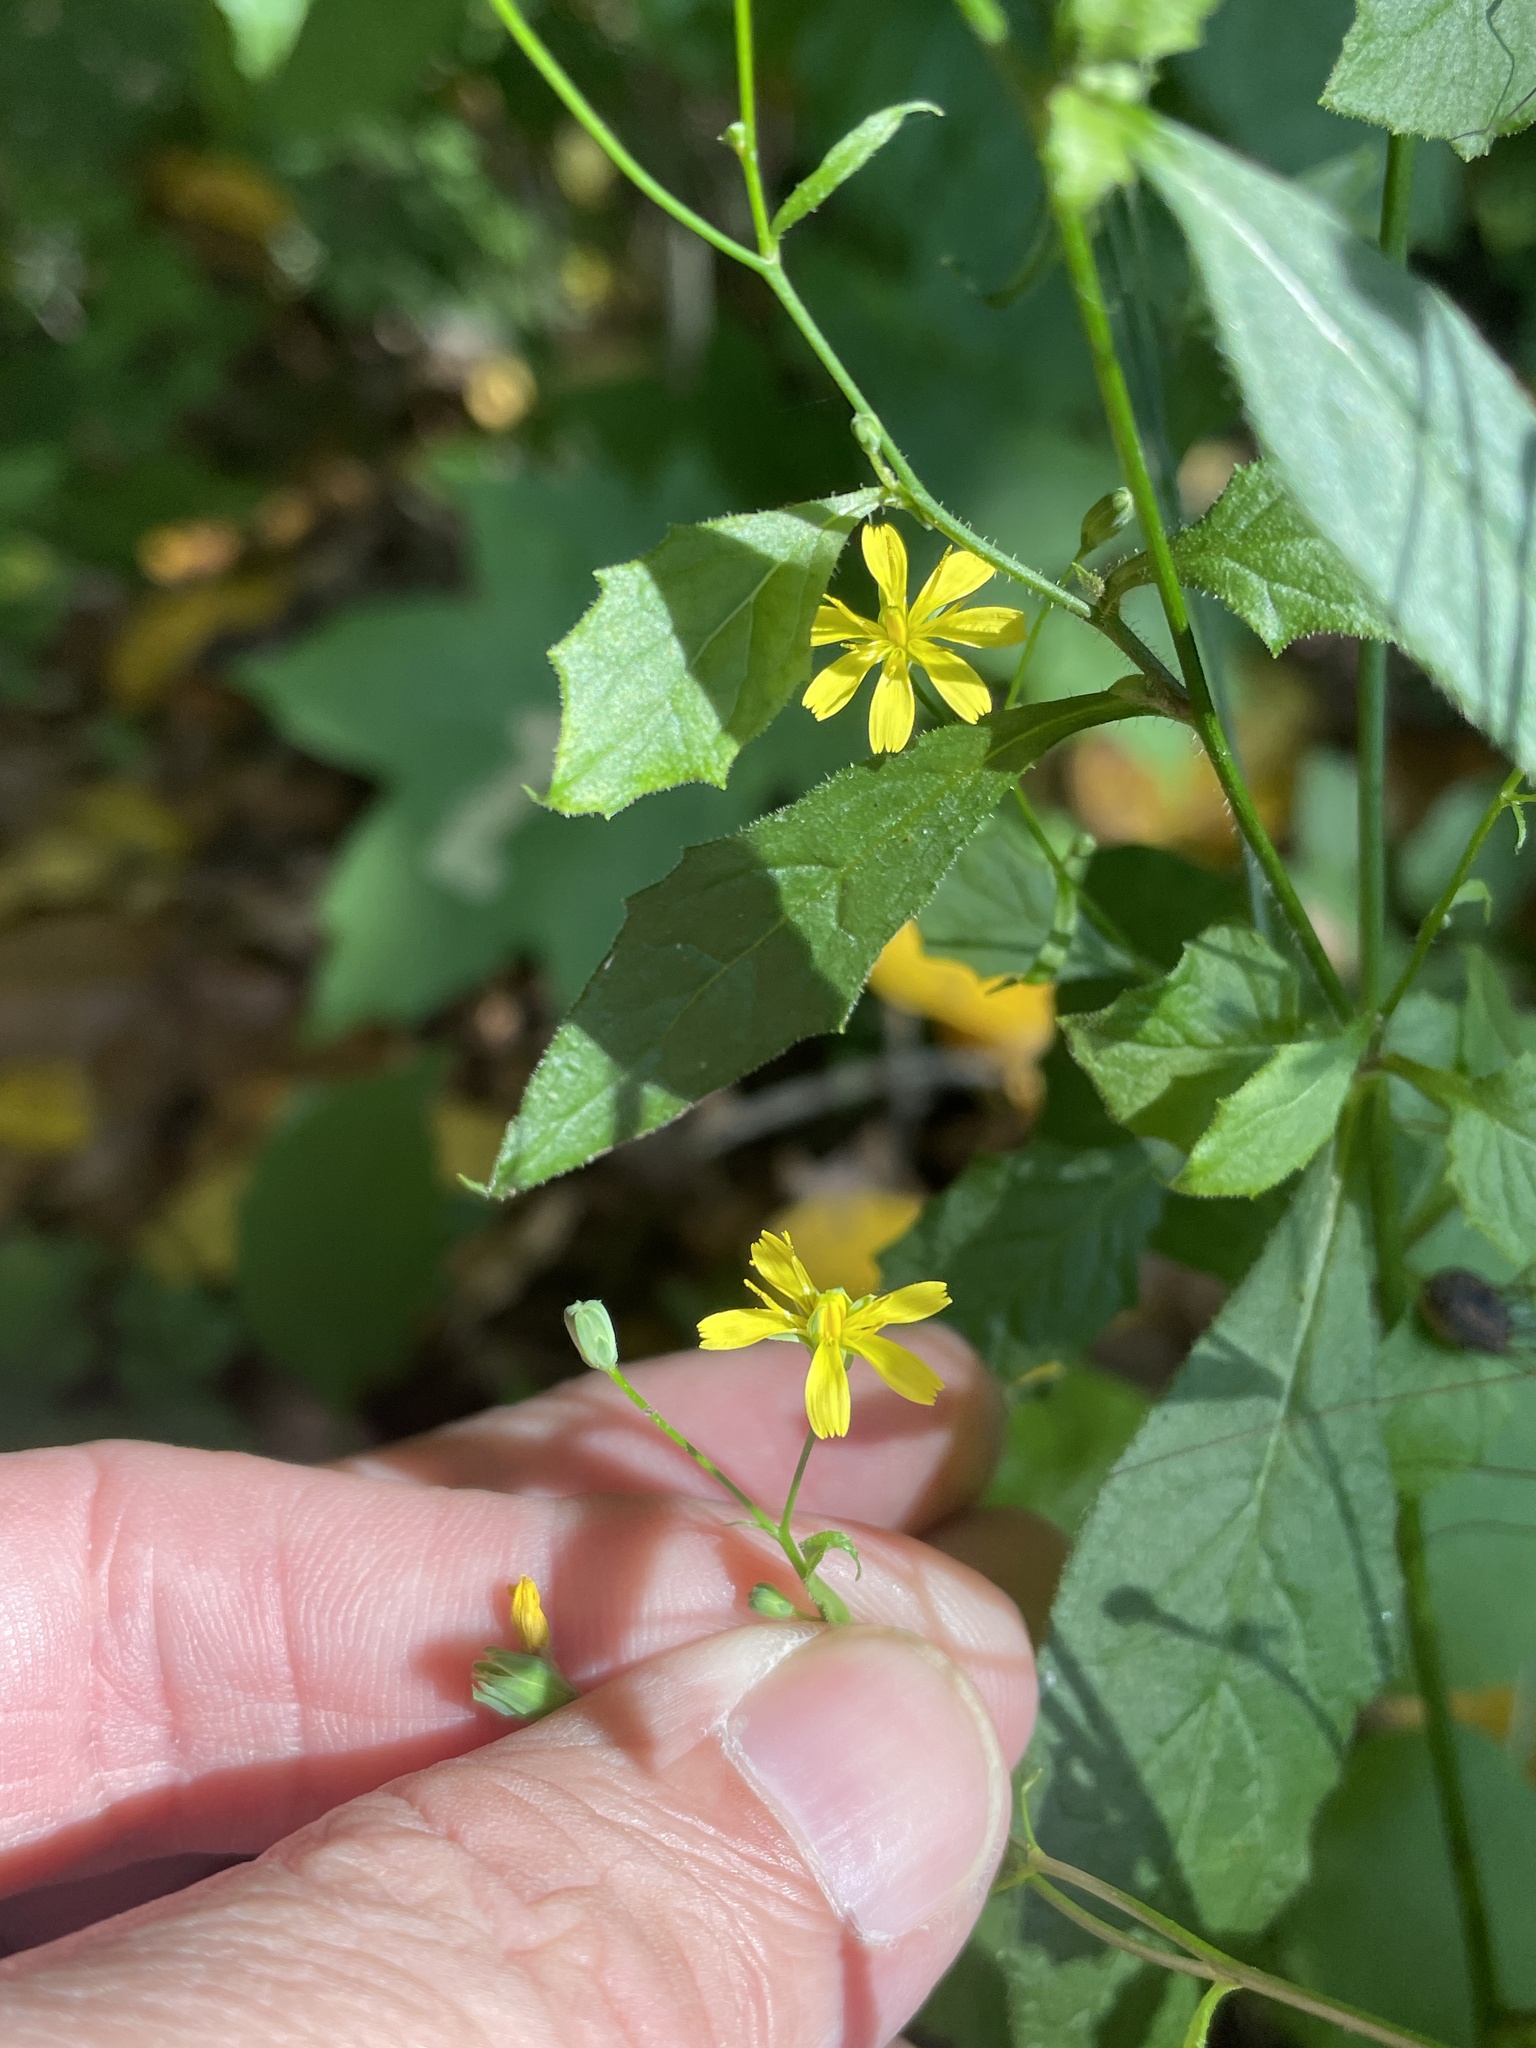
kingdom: Plantae
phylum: Tracheophyta
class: Magnoliopsida
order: Asterales
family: Asteraceae
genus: Lapsana
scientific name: Lapsana communis
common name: Nipplewort
